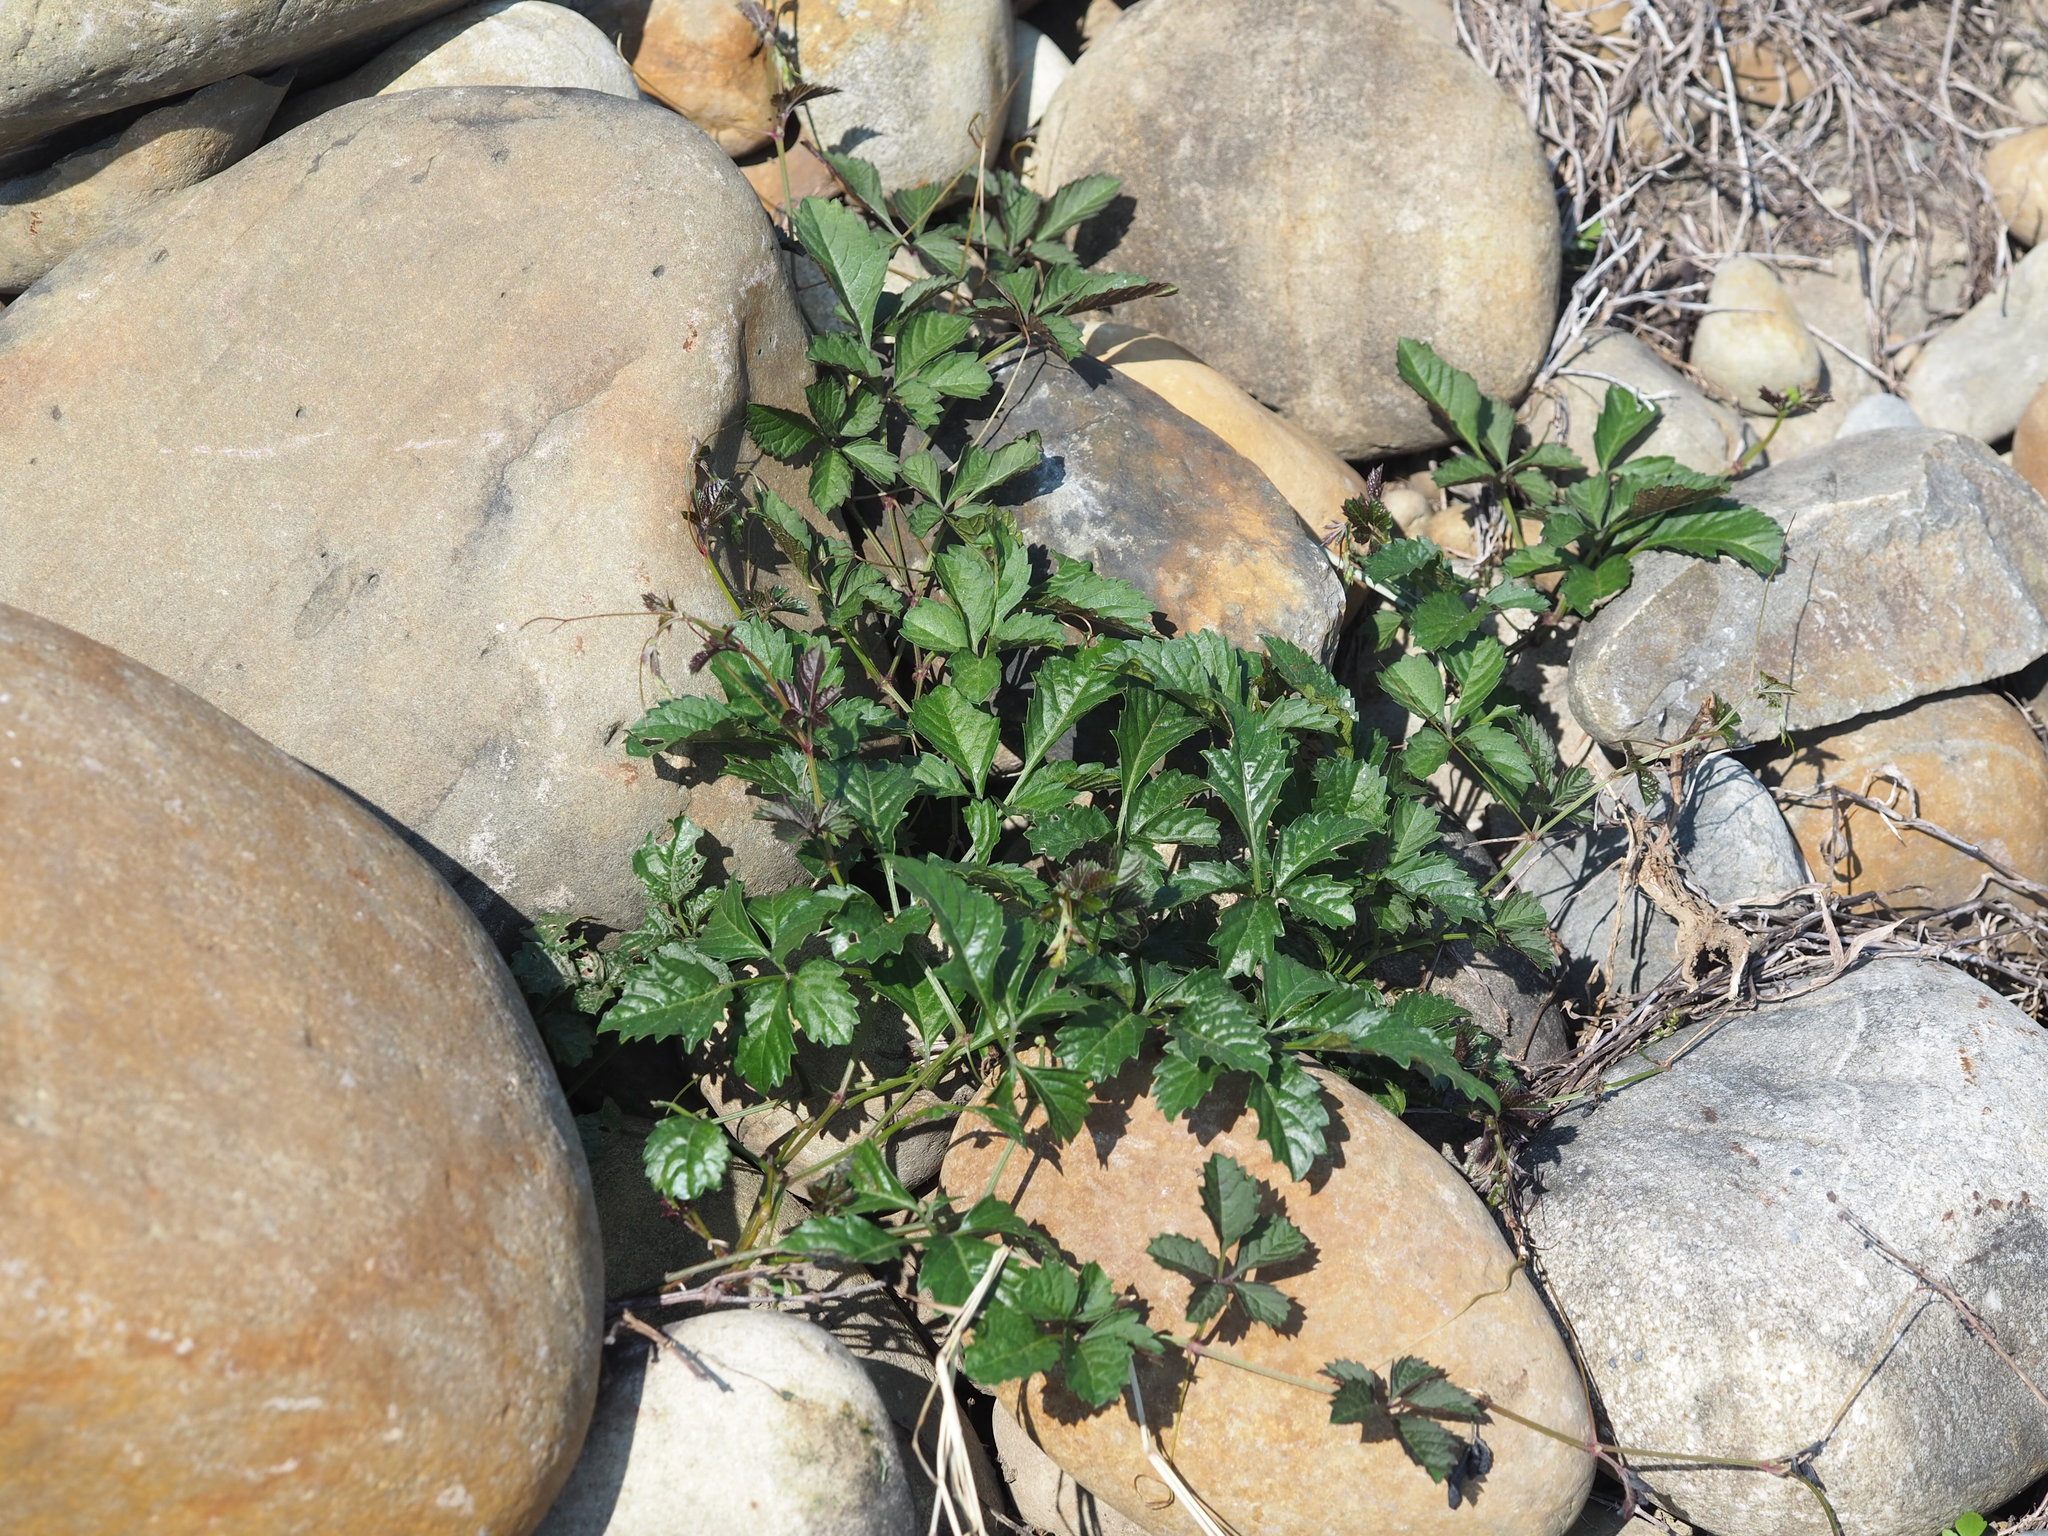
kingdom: Plantae
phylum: Tracheophyta
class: Magnoliopsida
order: Vitales
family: Vitaceae
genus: Causonis
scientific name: Causonis japonica
